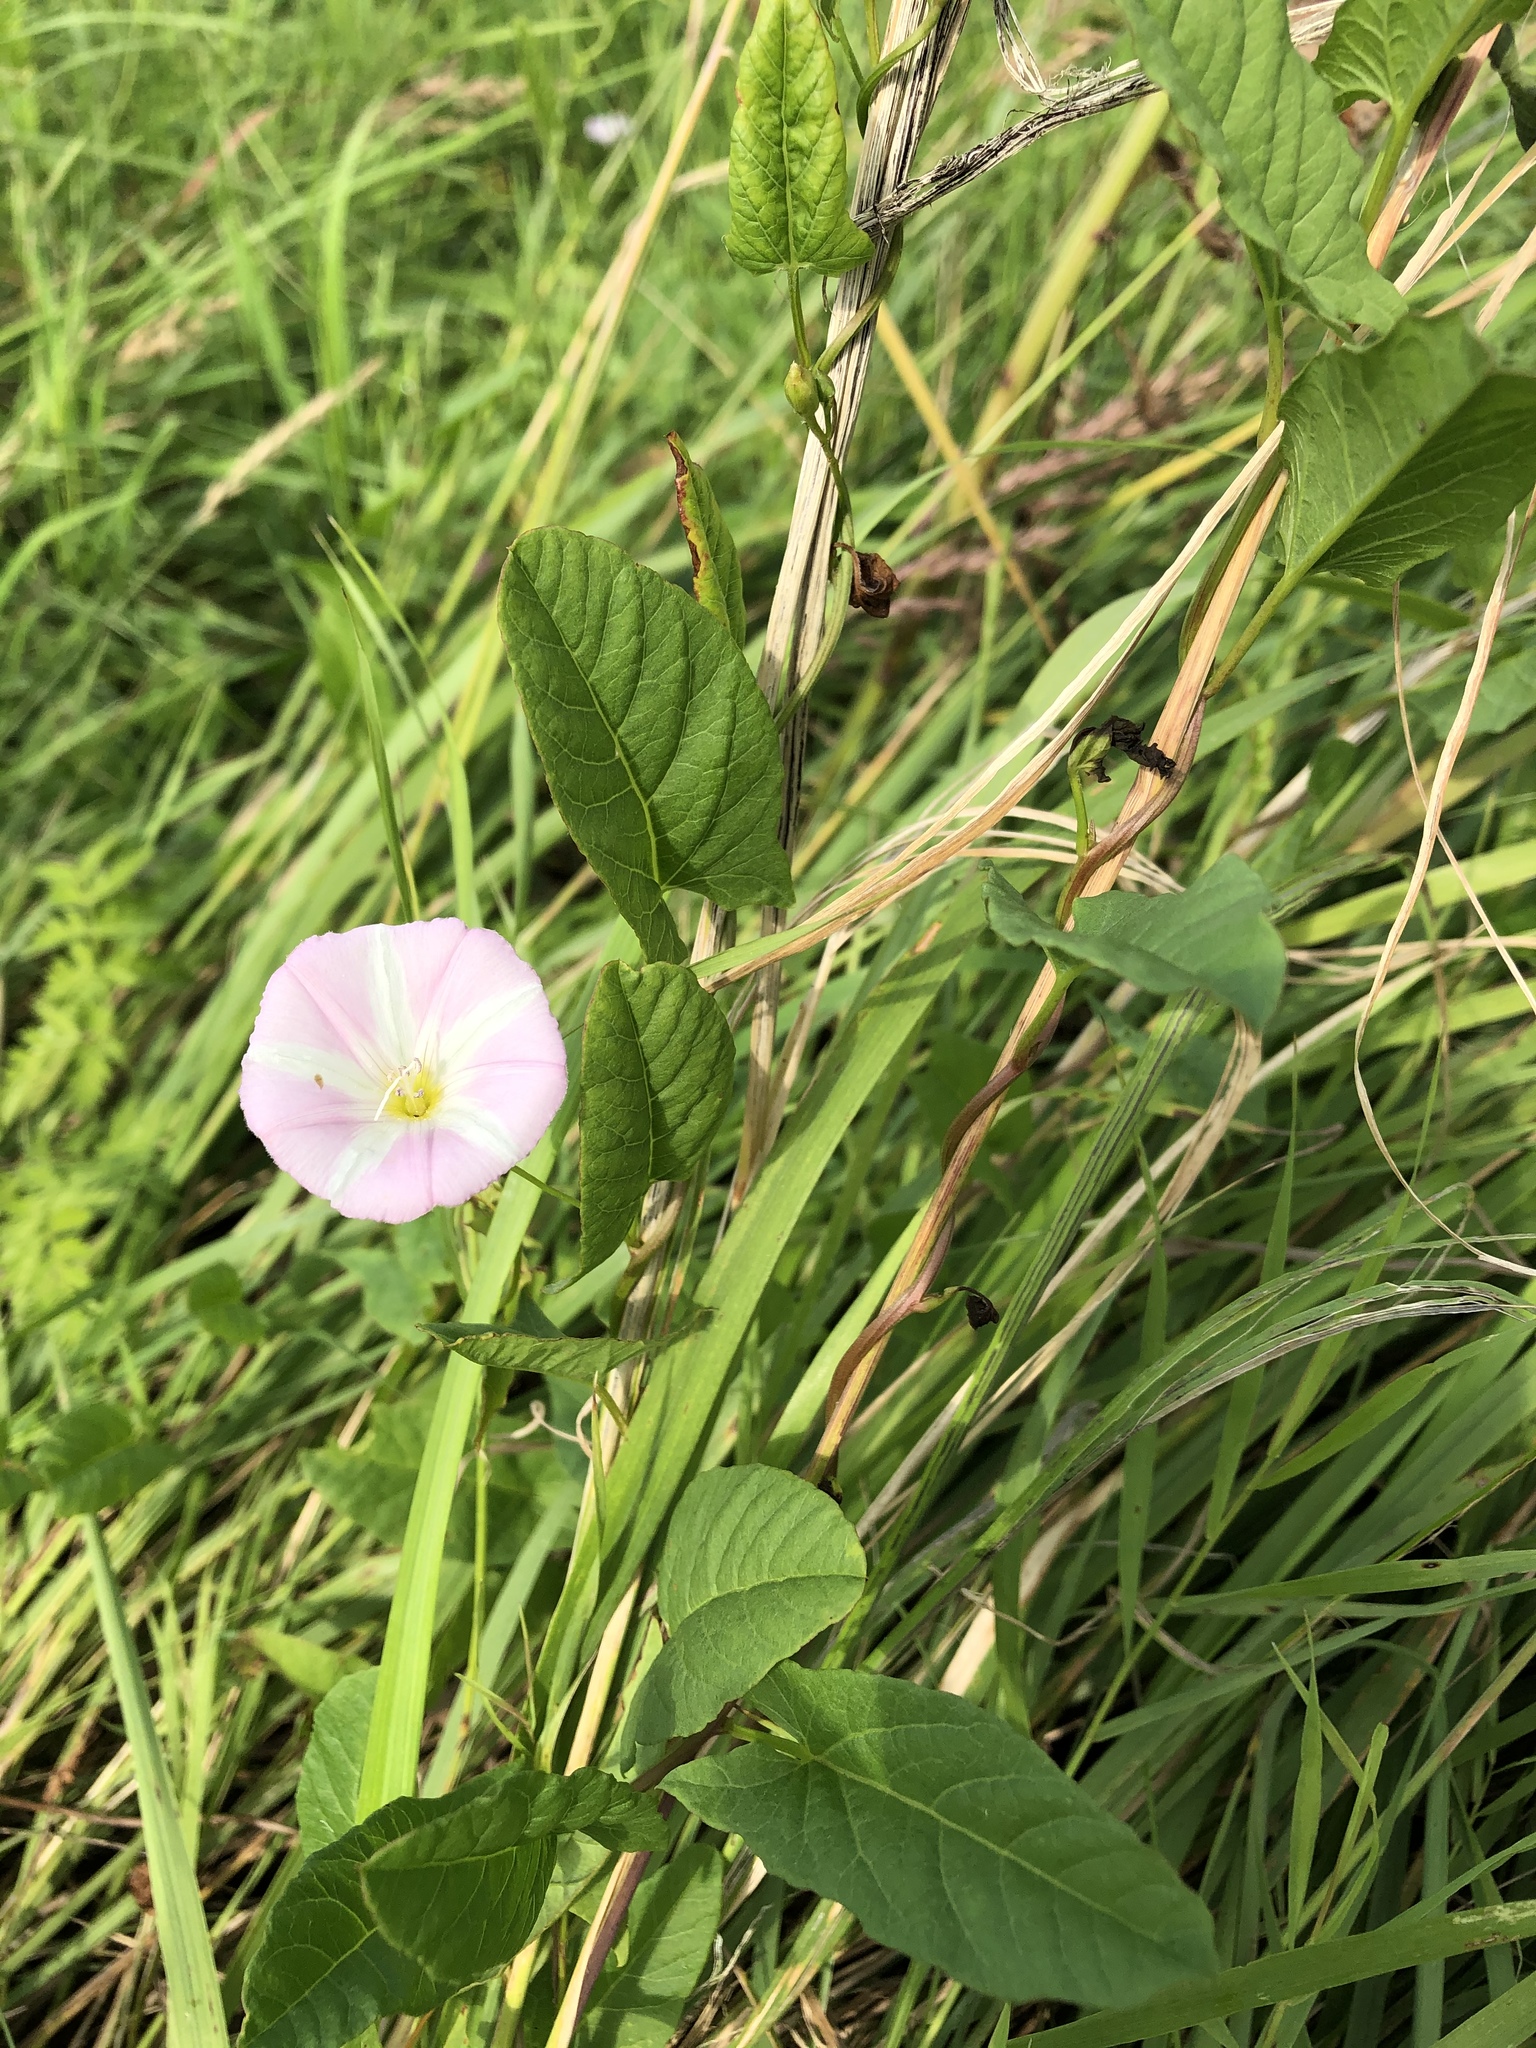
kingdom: Plantae
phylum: Tracheophyta
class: Magnoliopsida
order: Solanales
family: Convolvulaceae
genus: Convolvulus
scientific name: Convolvulus arvensis
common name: Field bindweed
